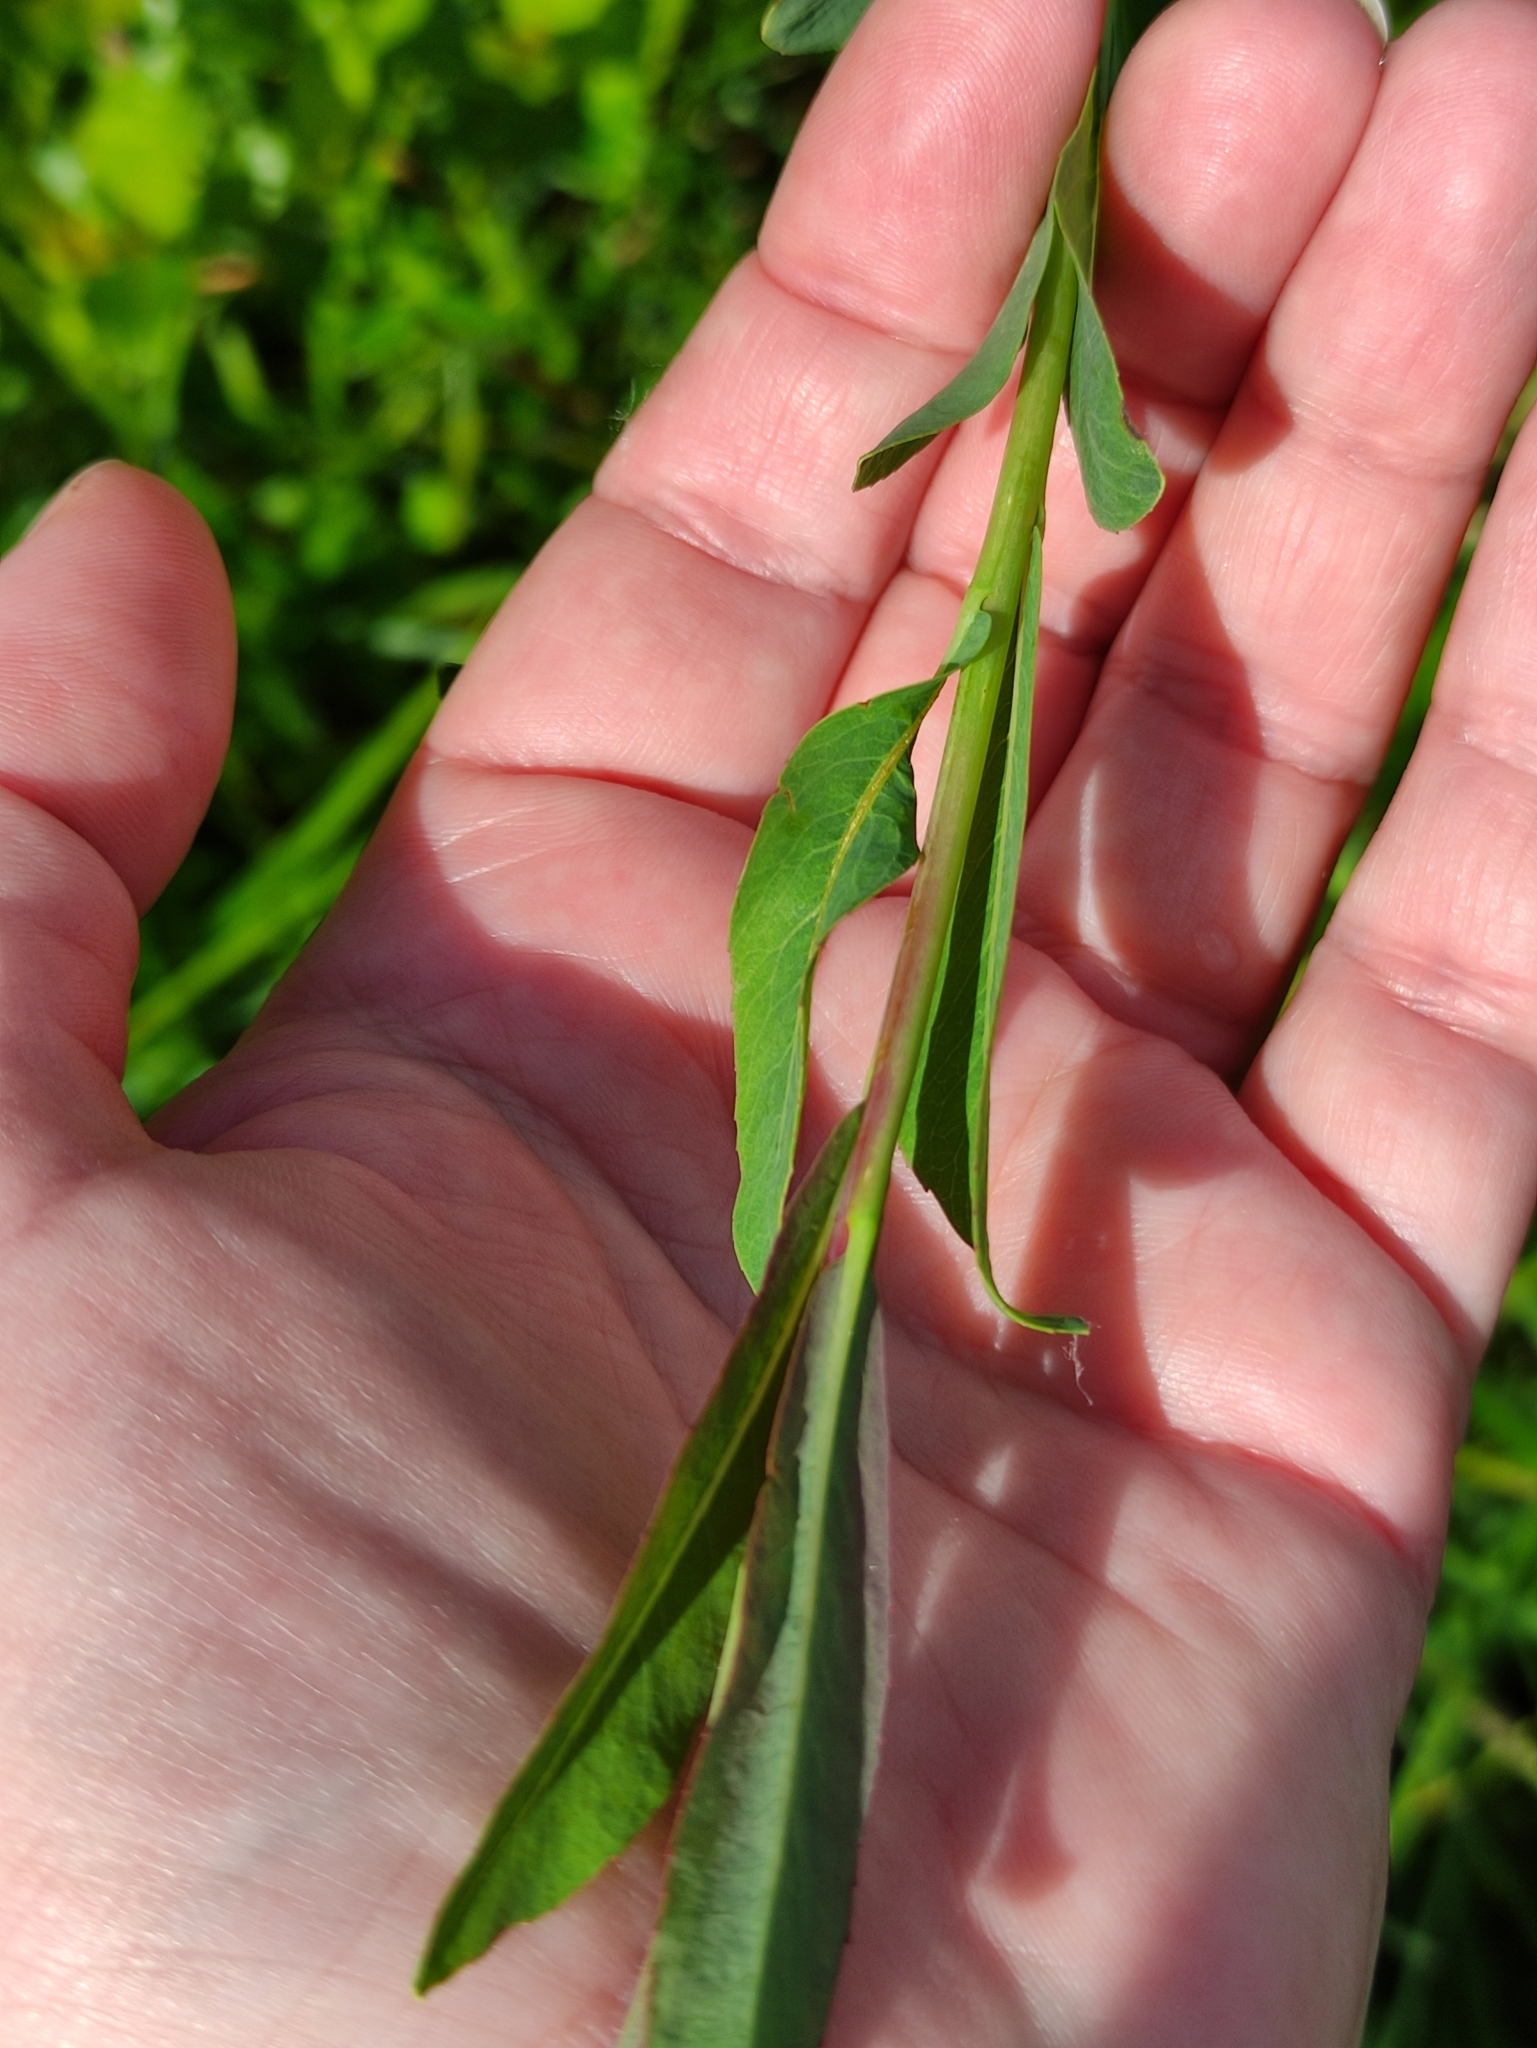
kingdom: Plantae
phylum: Tracheophyta
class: Magnoliopsida
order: Malpighiales
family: Salicaceae
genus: Salix
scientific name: Salix purpurea
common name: Purple willow
